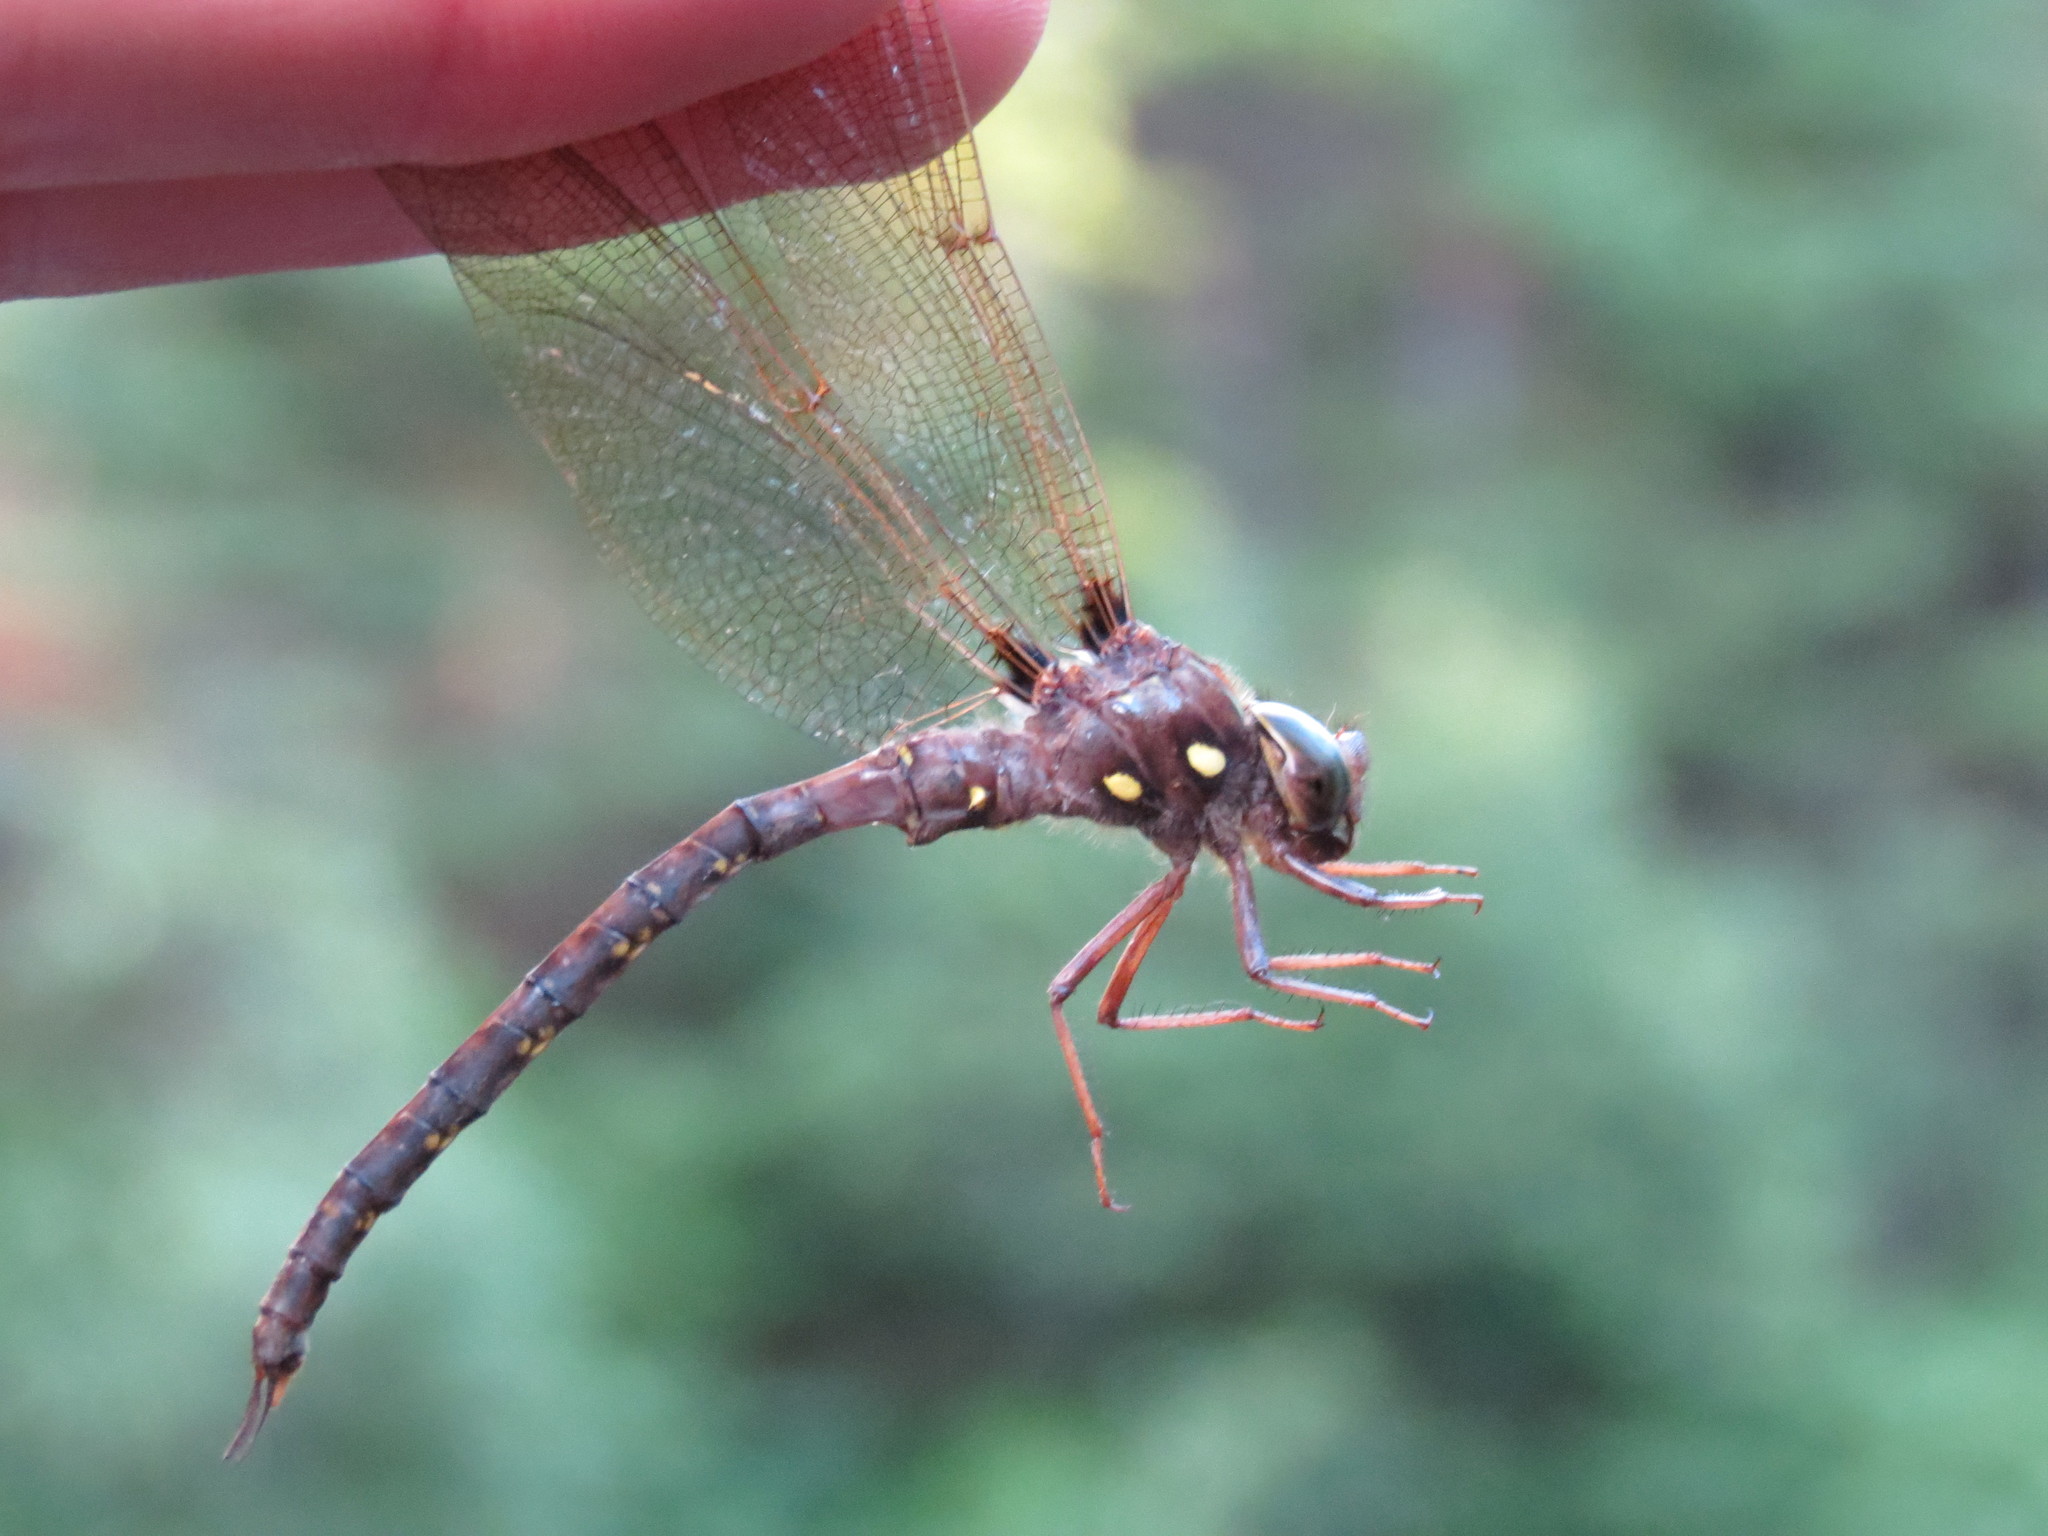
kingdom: Animalia
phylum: Arthropoda
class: Insecta
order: Odonata
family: Aeshnidae
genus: Boyeria
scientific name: Boyeria vinosa
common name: Fawn darner
